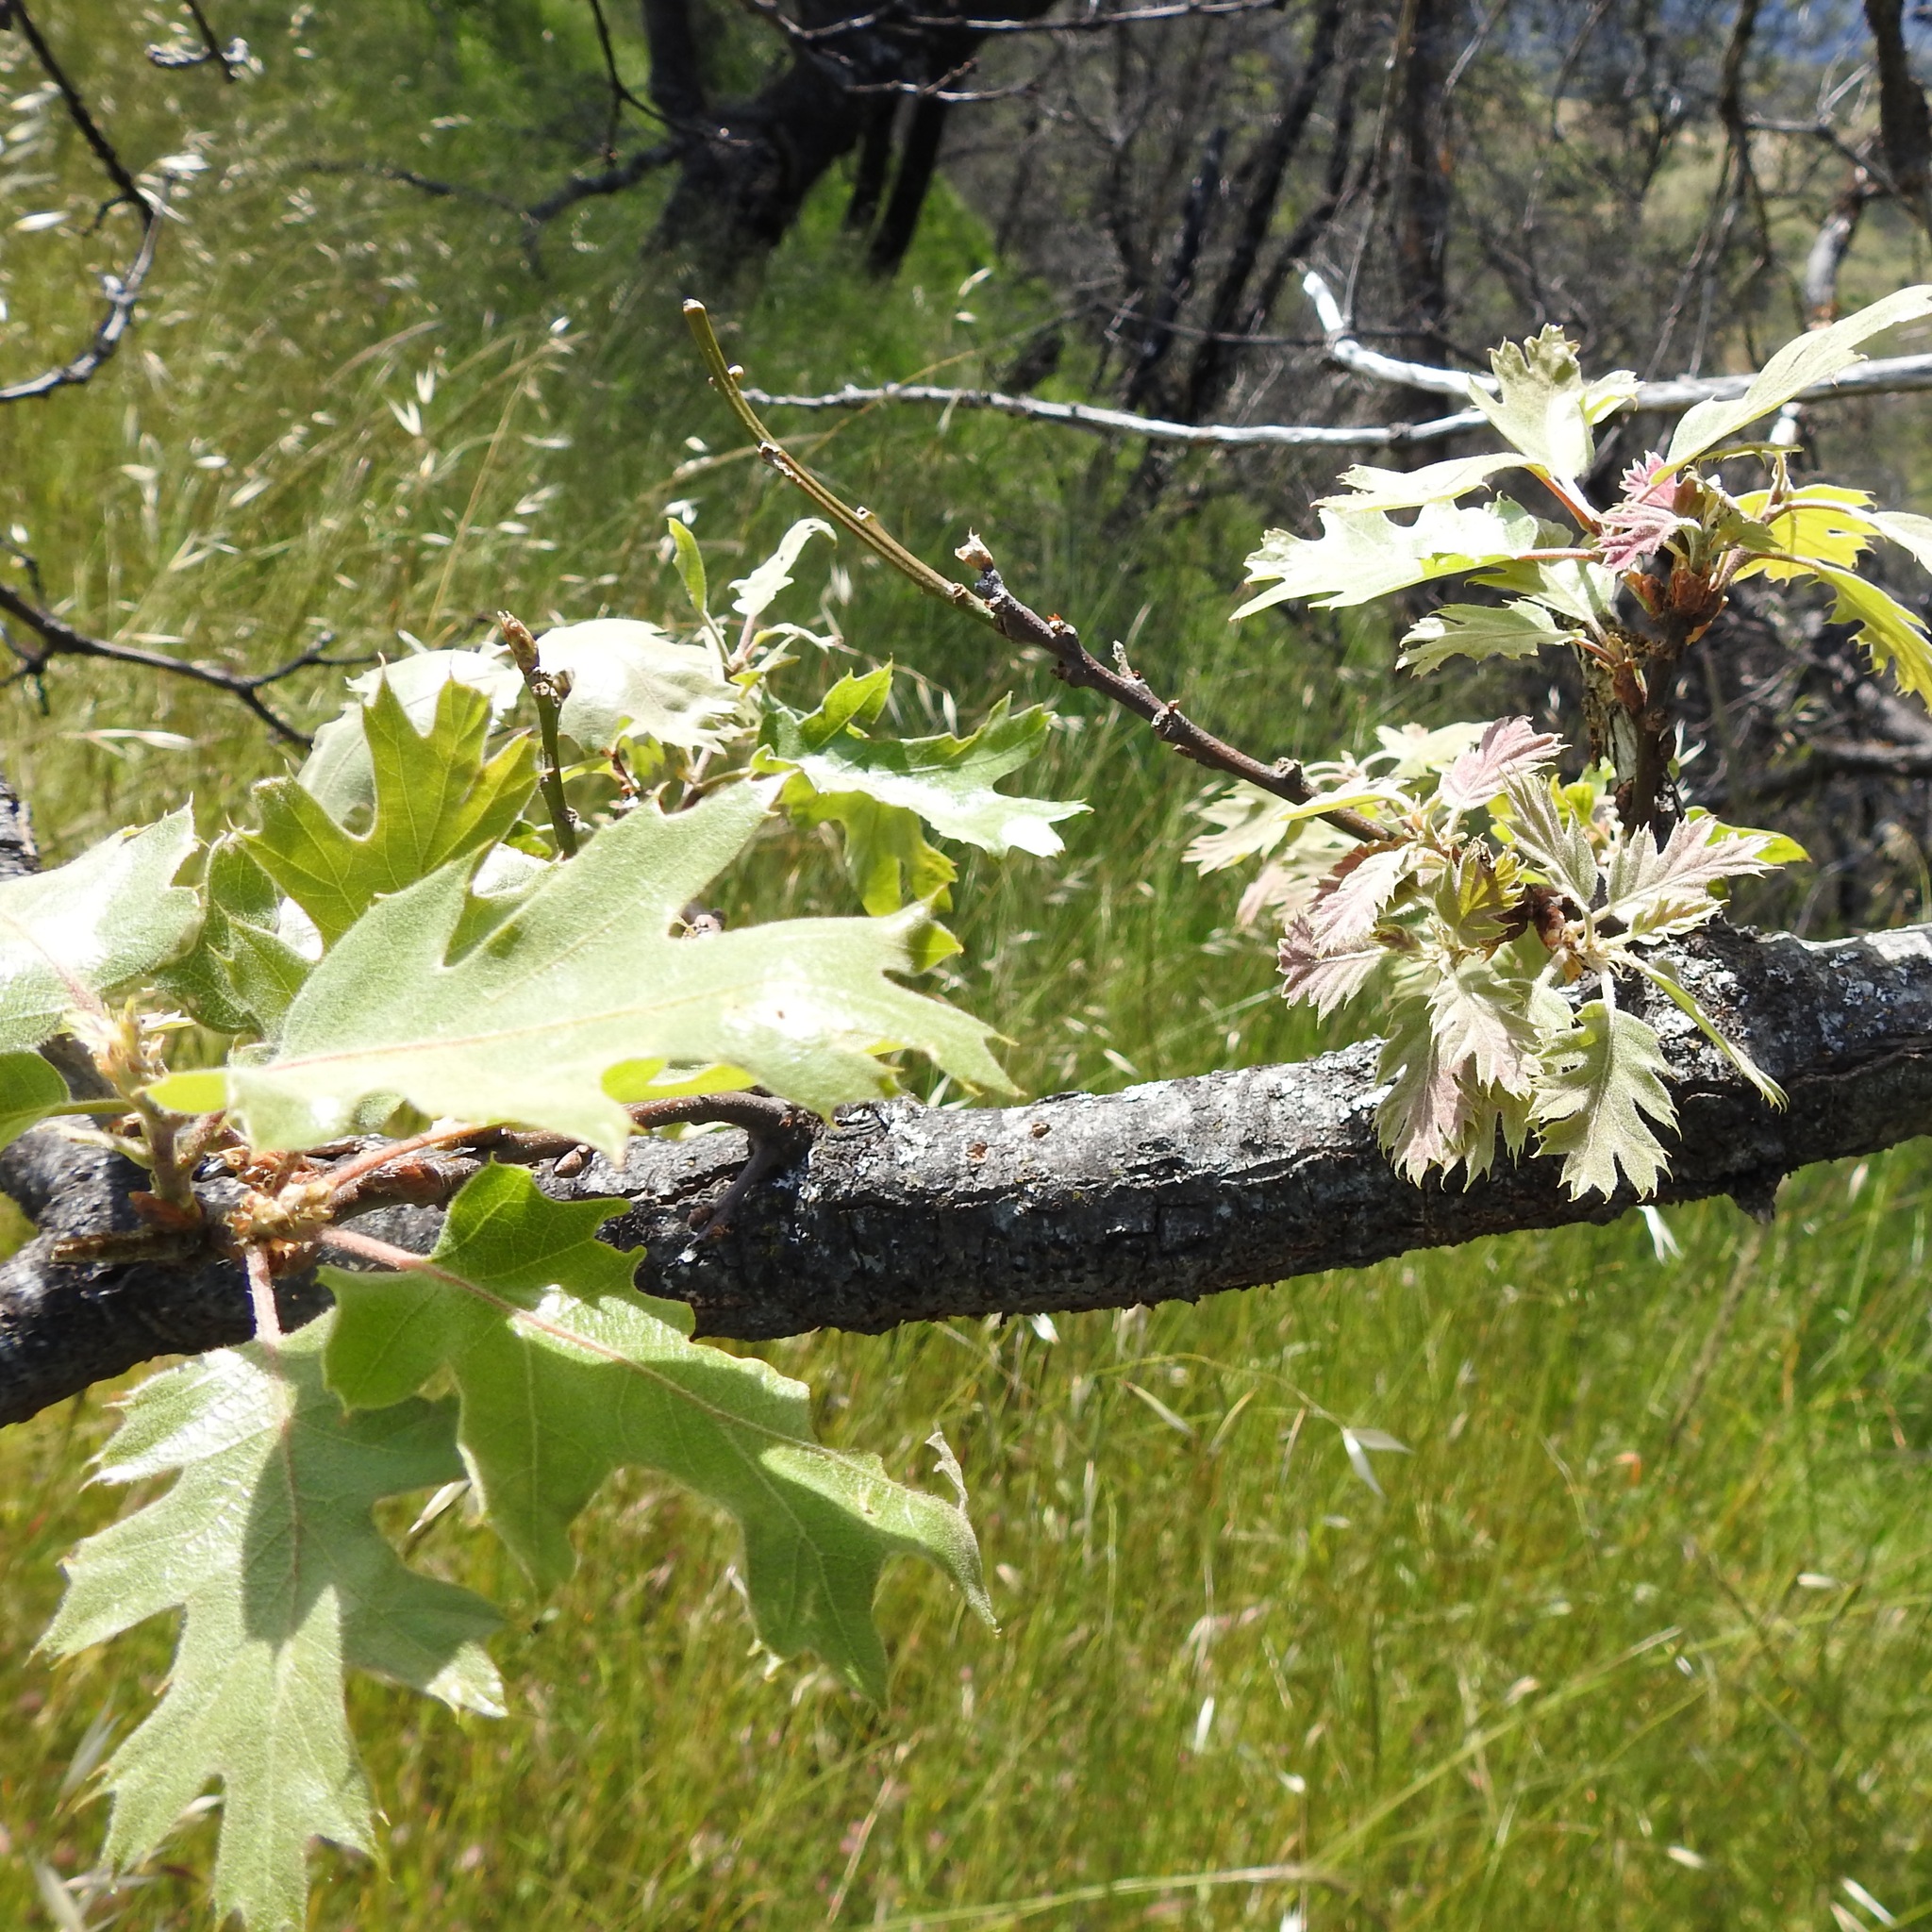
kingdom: Plantae
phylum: Tracheophyta
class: Magnoliopsida
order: Fagales
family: Fagaceae
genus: Quercus
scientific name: Quercus kelloggii
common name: California black oak
